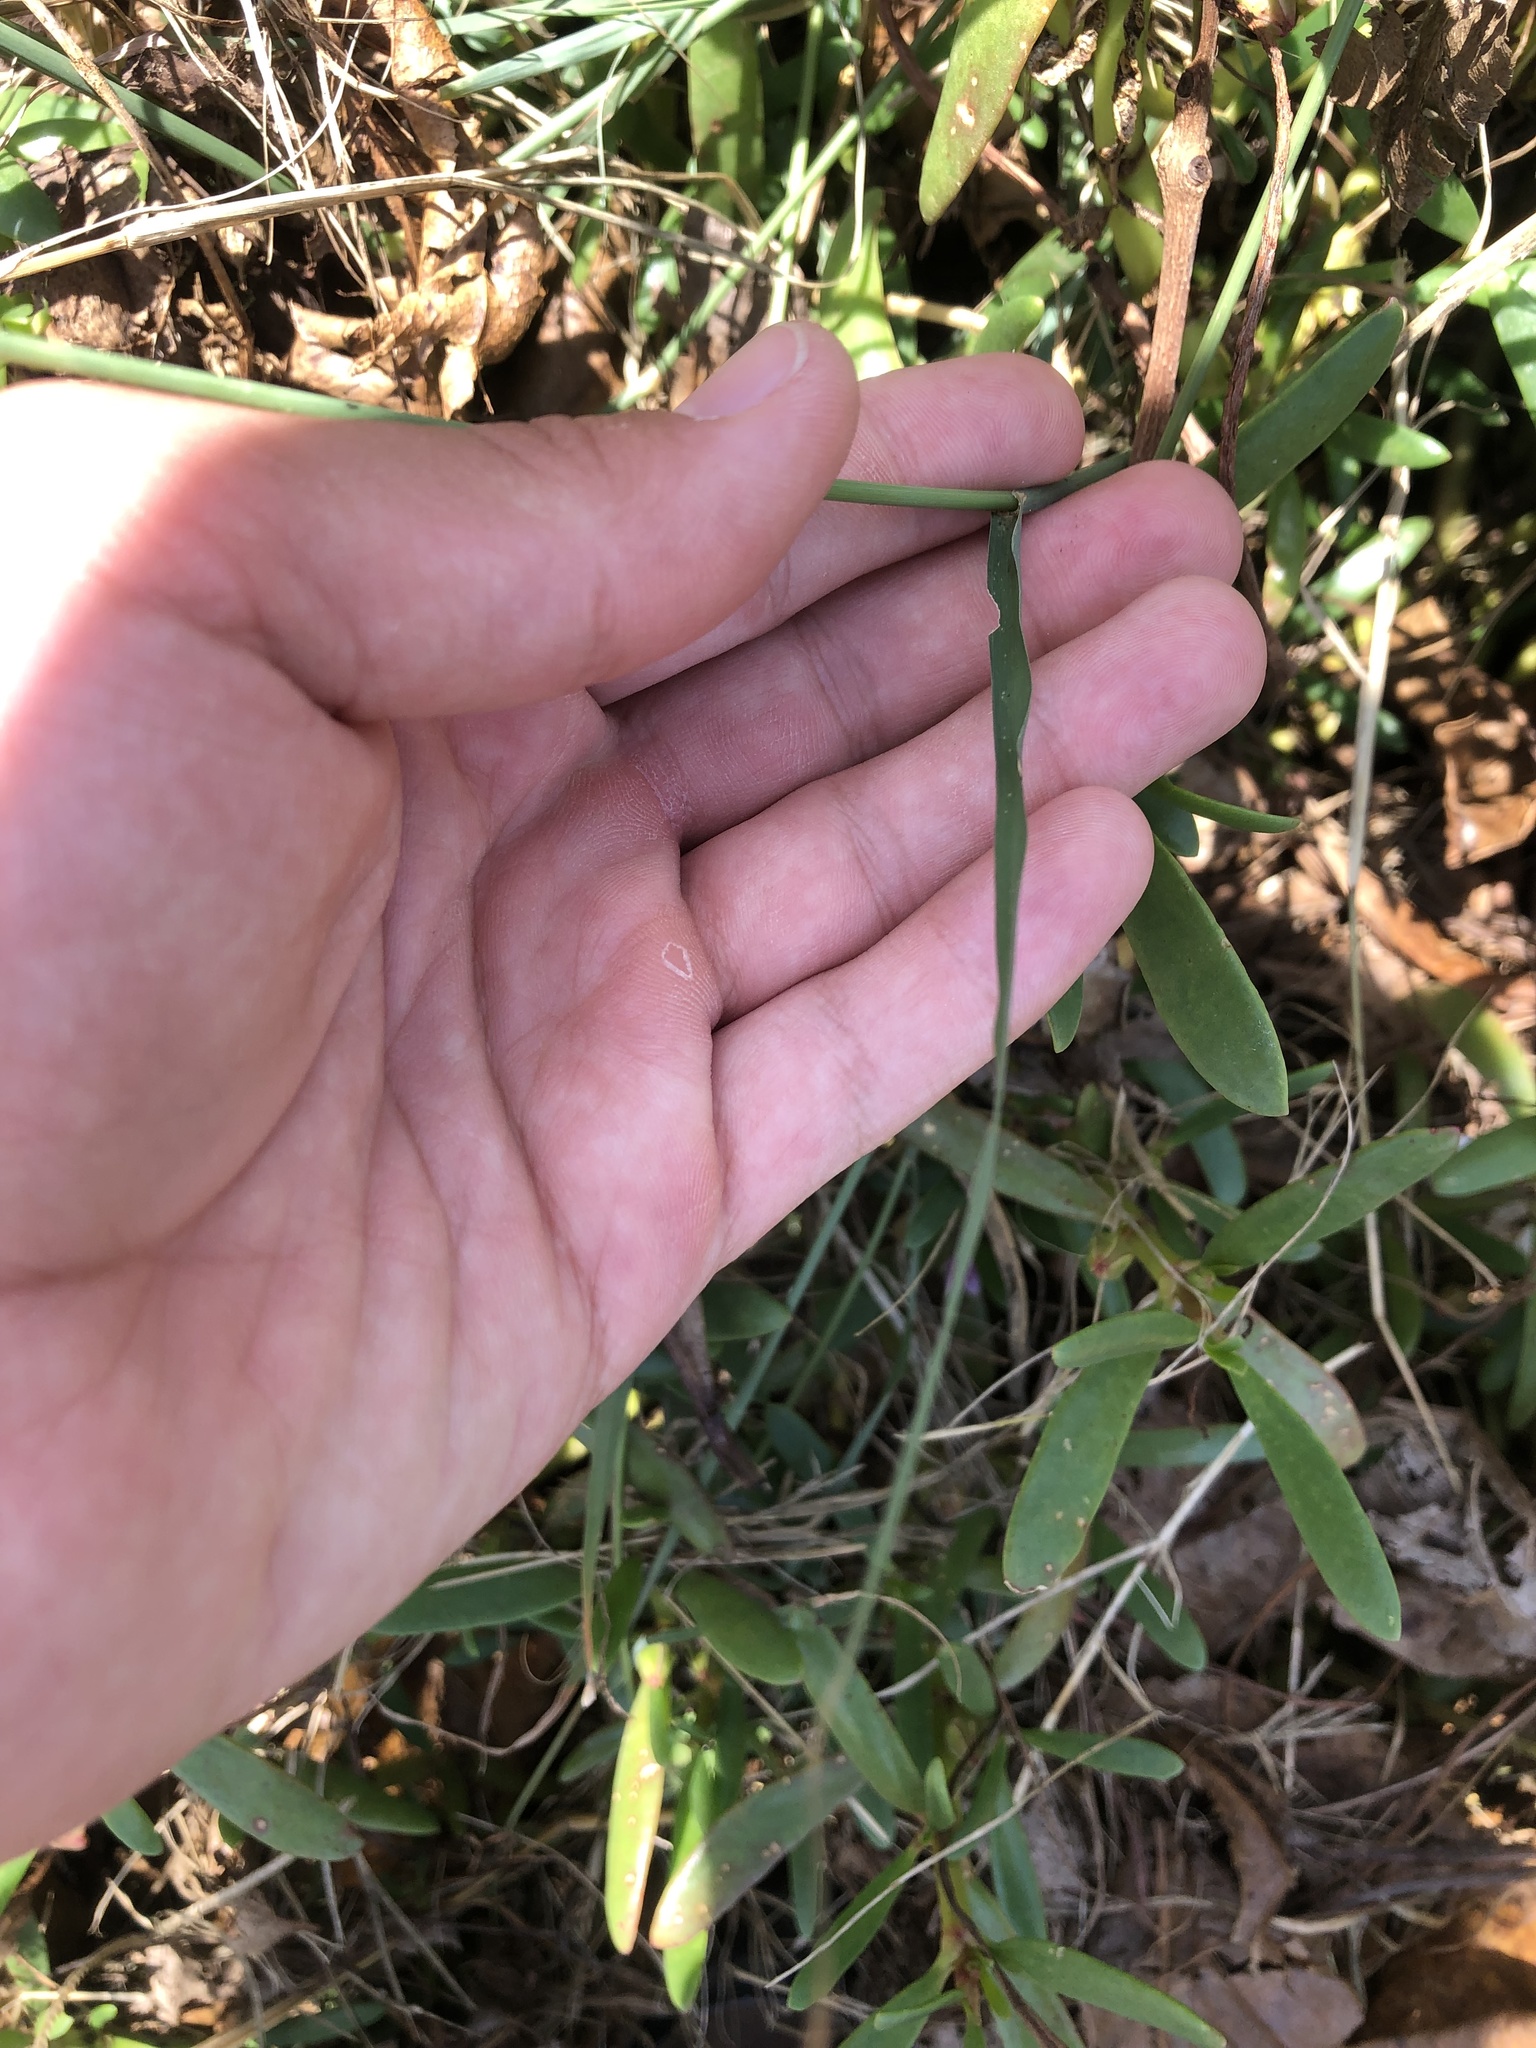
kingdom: Plantae
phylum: Tracheophyta
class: Liliopsida
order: Poales
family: Poaceae
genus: Chloris
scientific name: Chloris barbata
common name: Swollen fingergrass
